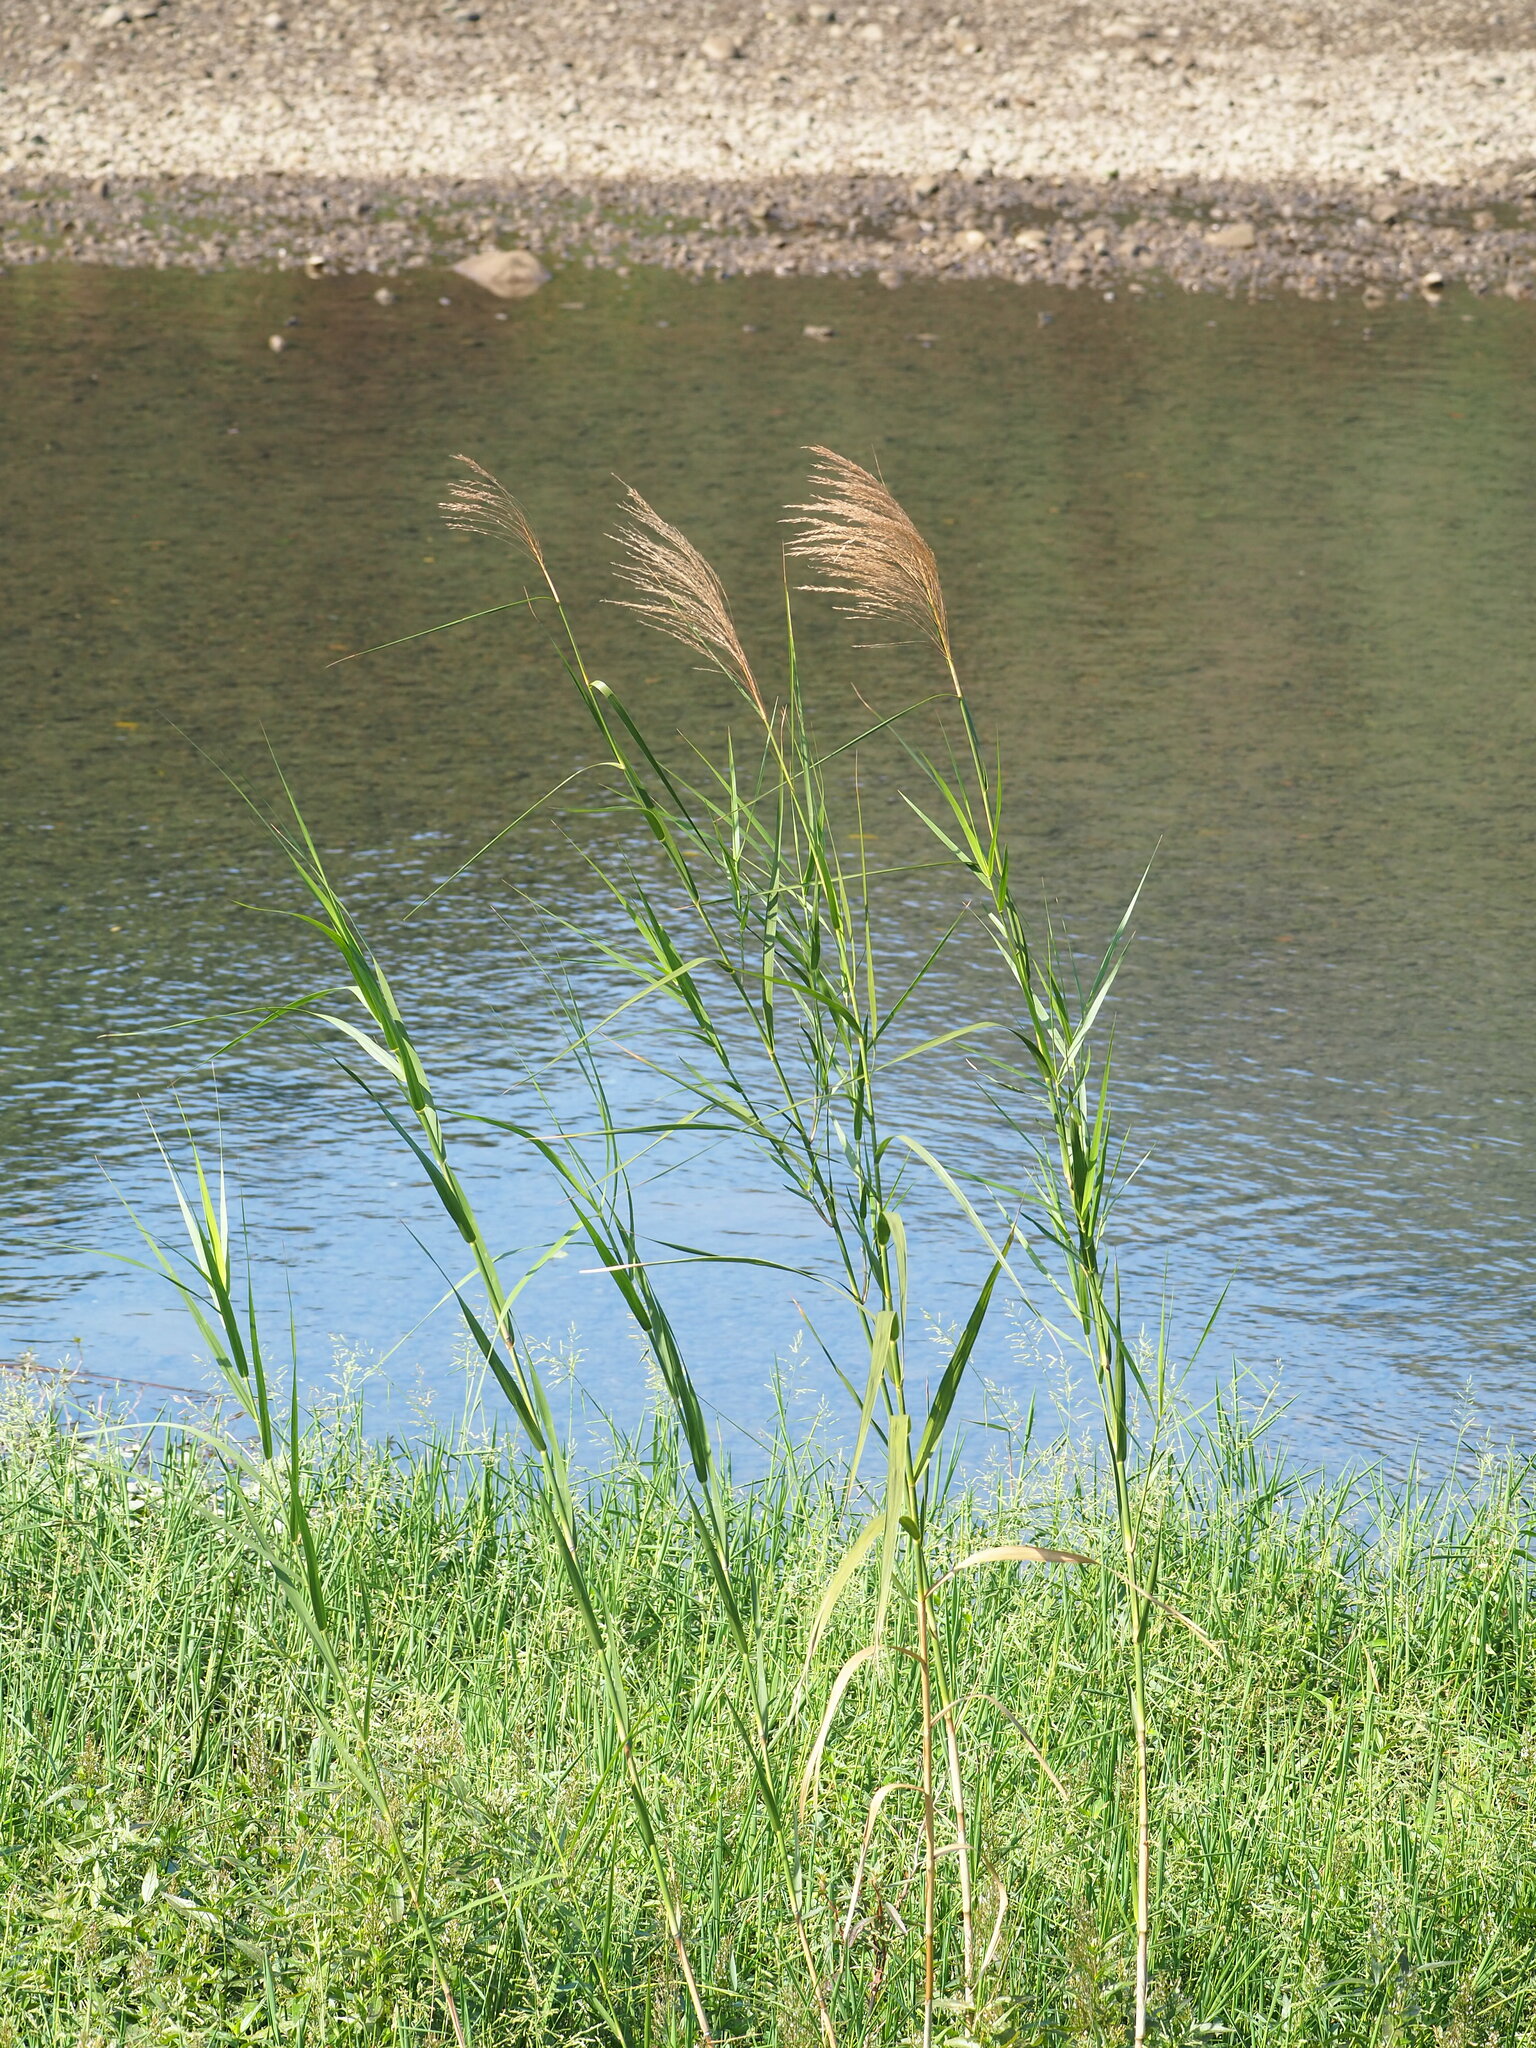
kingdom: Plantae
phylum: Tracheophyta
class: Liliopsida
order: Poales
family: Poaceae
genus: Phragmites
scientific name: Phragmites karka
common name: Tropical reed
